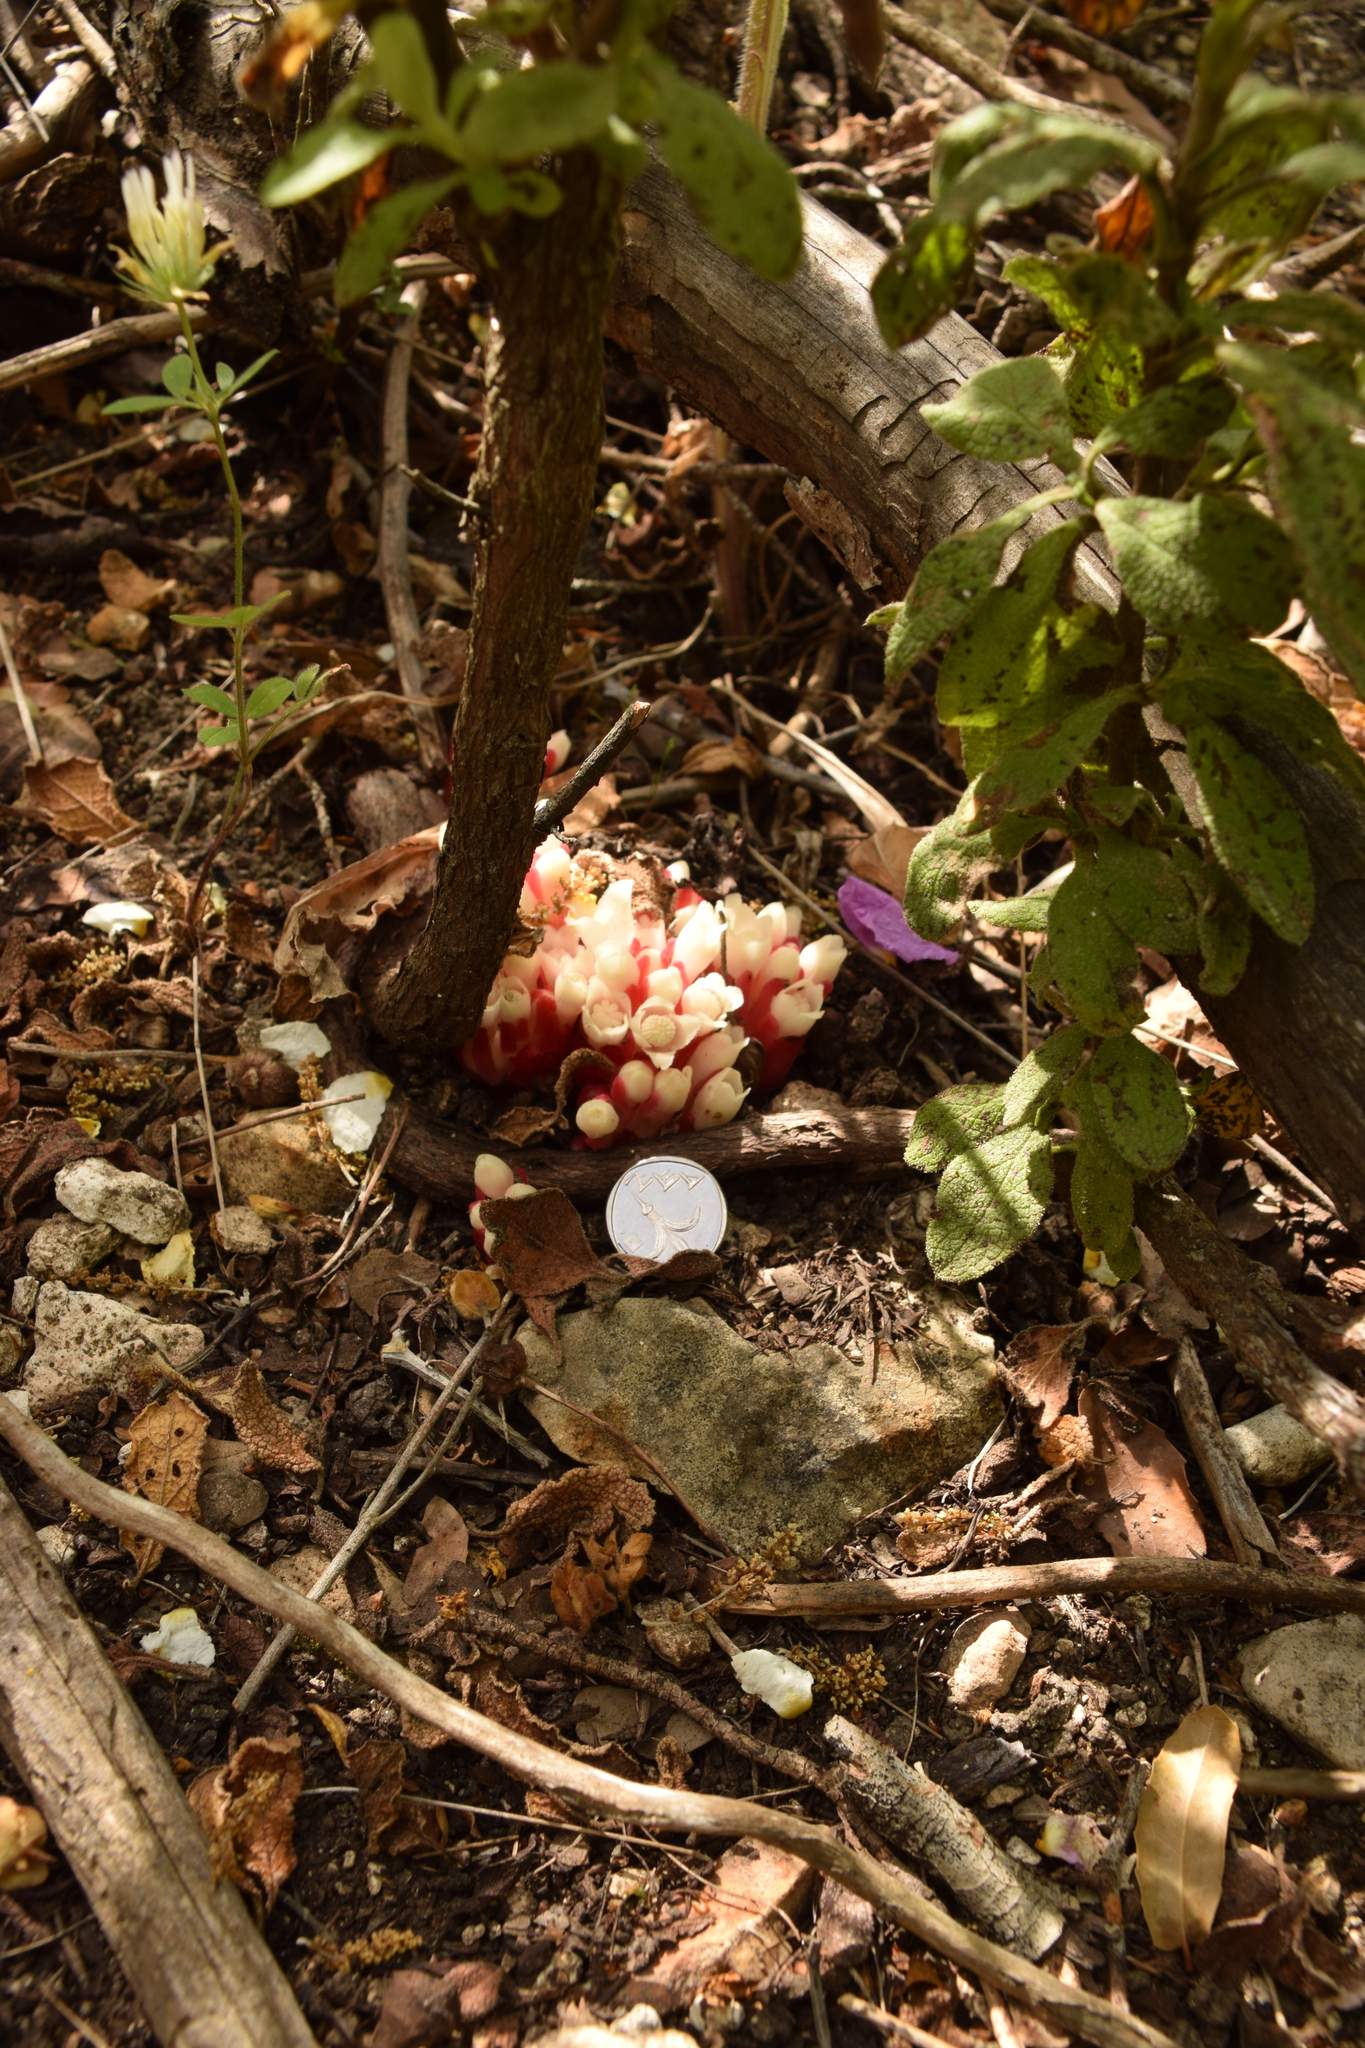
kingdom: Plantae
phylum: Tracheophyta
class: Magnoliopsida
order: Malvales
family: Cytinaceae
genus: Cytinus
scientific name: Cytinus ruber
